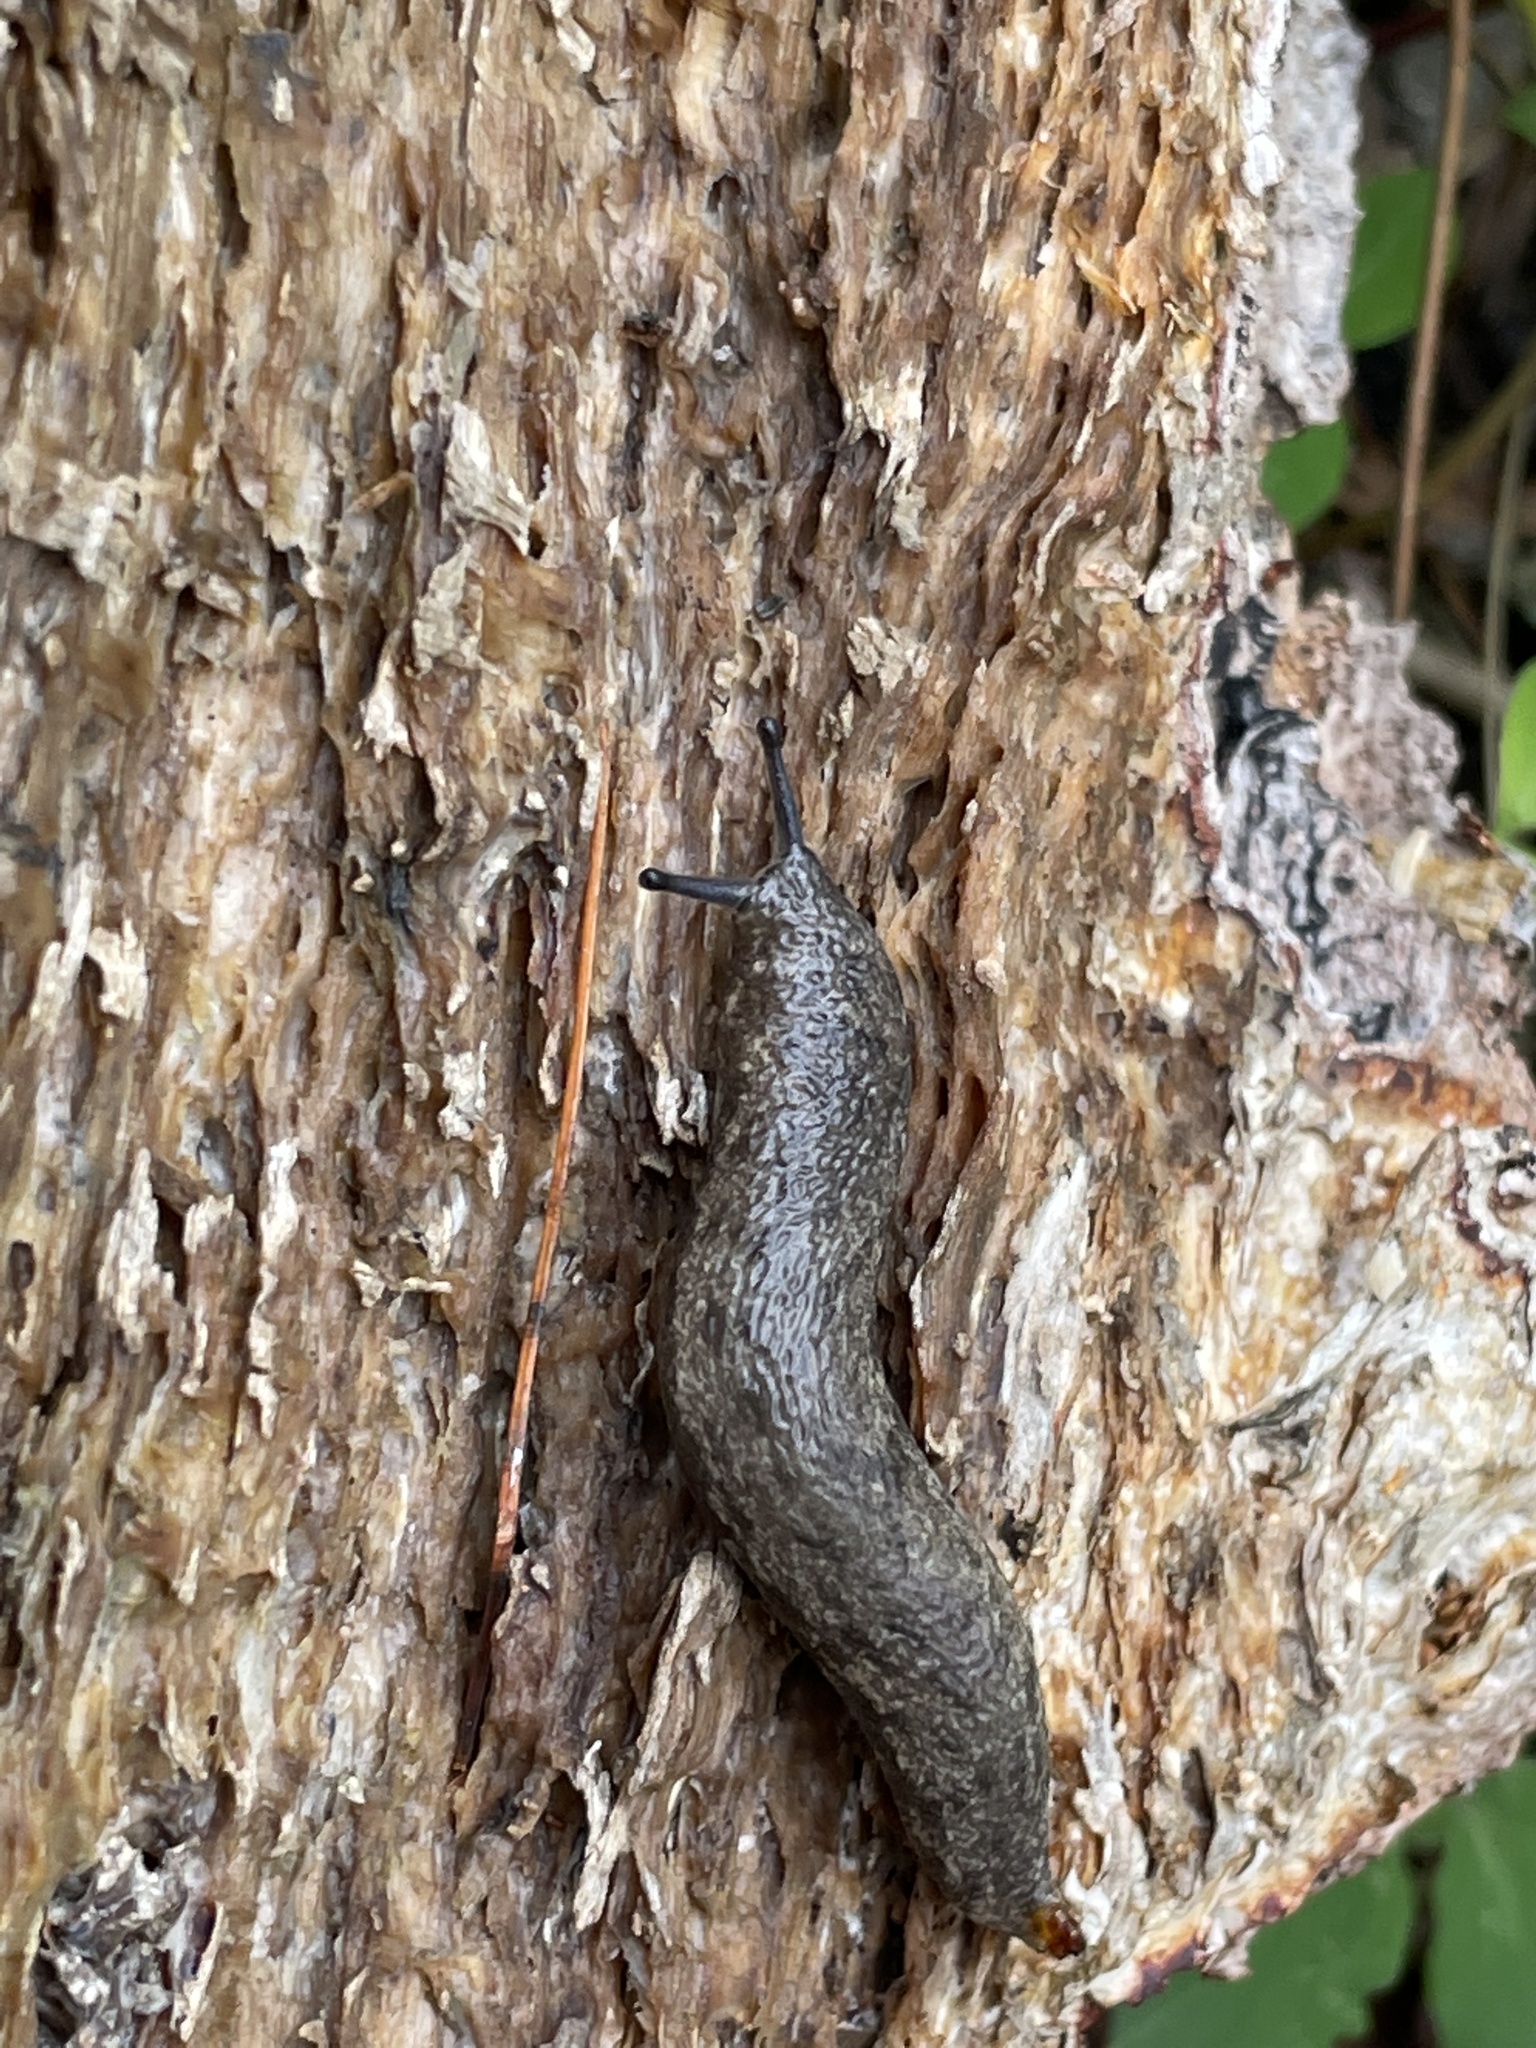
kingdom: Animalia
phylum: Mollusca
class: Gastropoda
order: Stylommatophora
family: Philomycidae
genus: Megapallifera
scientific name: Megapallifera mutabilis
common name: Changeable mantleslug
